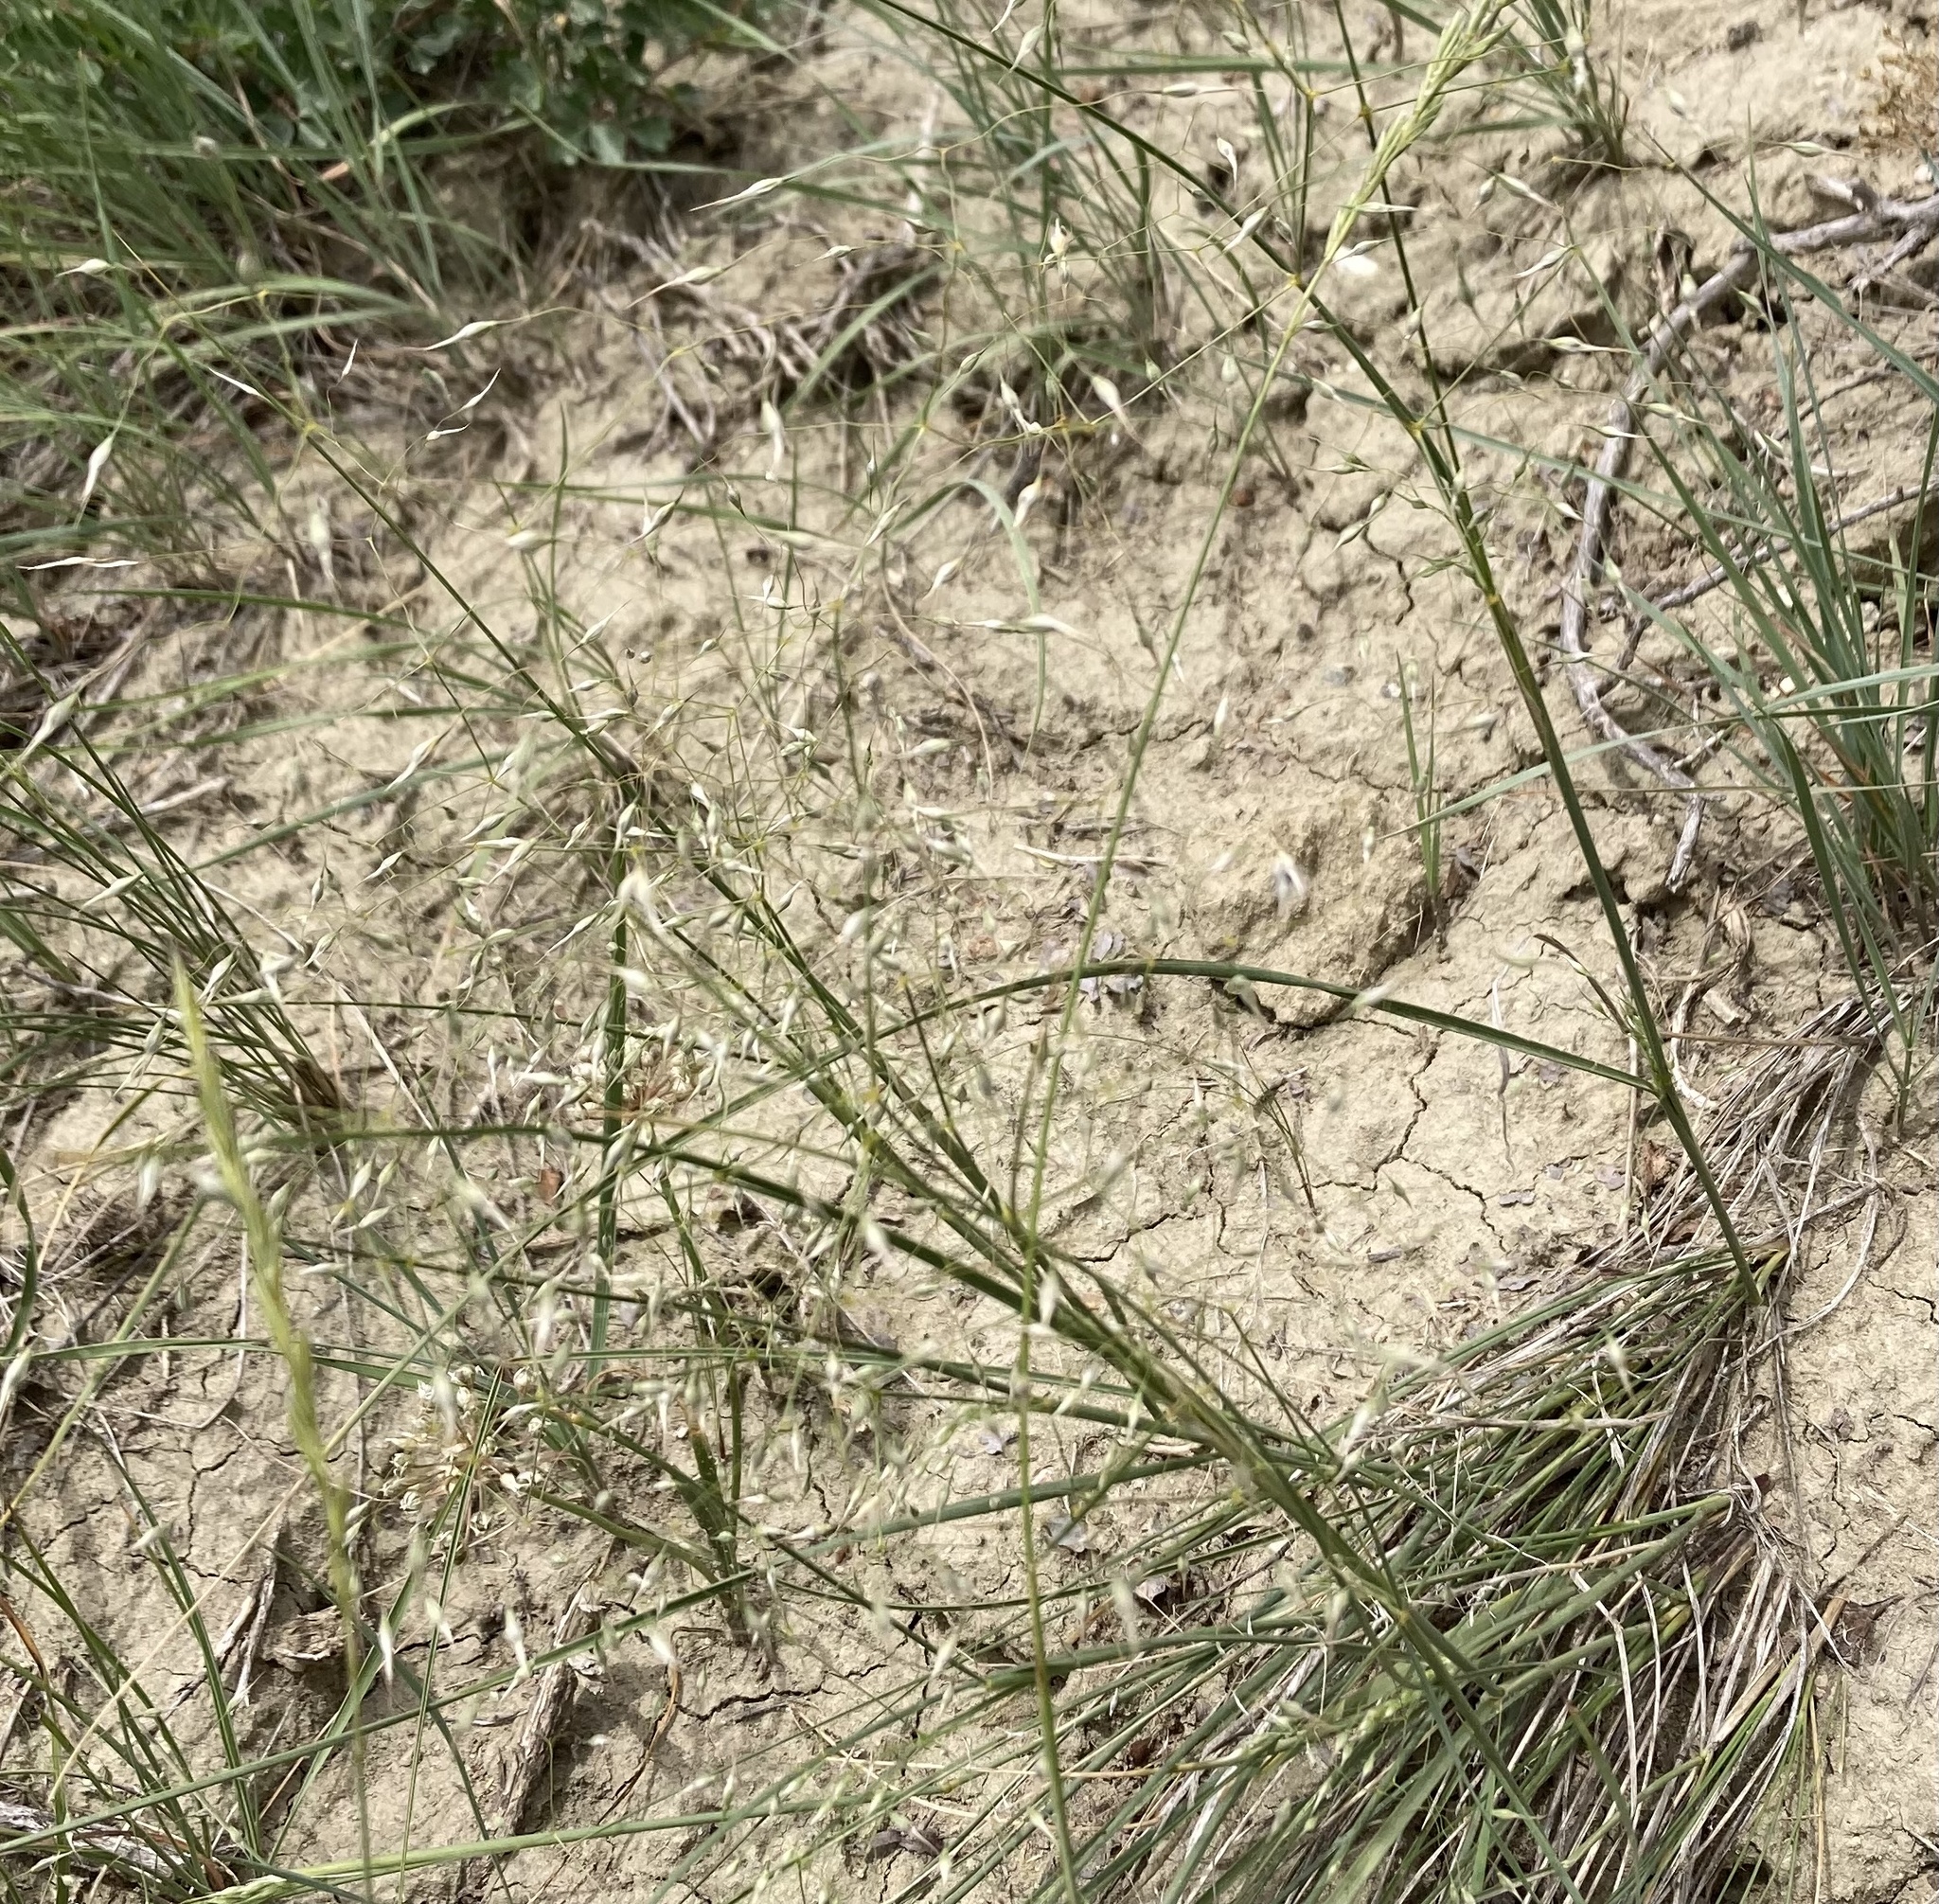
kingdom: Plantae
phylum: Tracheophyta
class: Liliopsida
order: Poales
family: Poaceae
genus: Eriocoma
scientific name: Eriocoma hymenoides
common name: Indian mountain ricegrass
